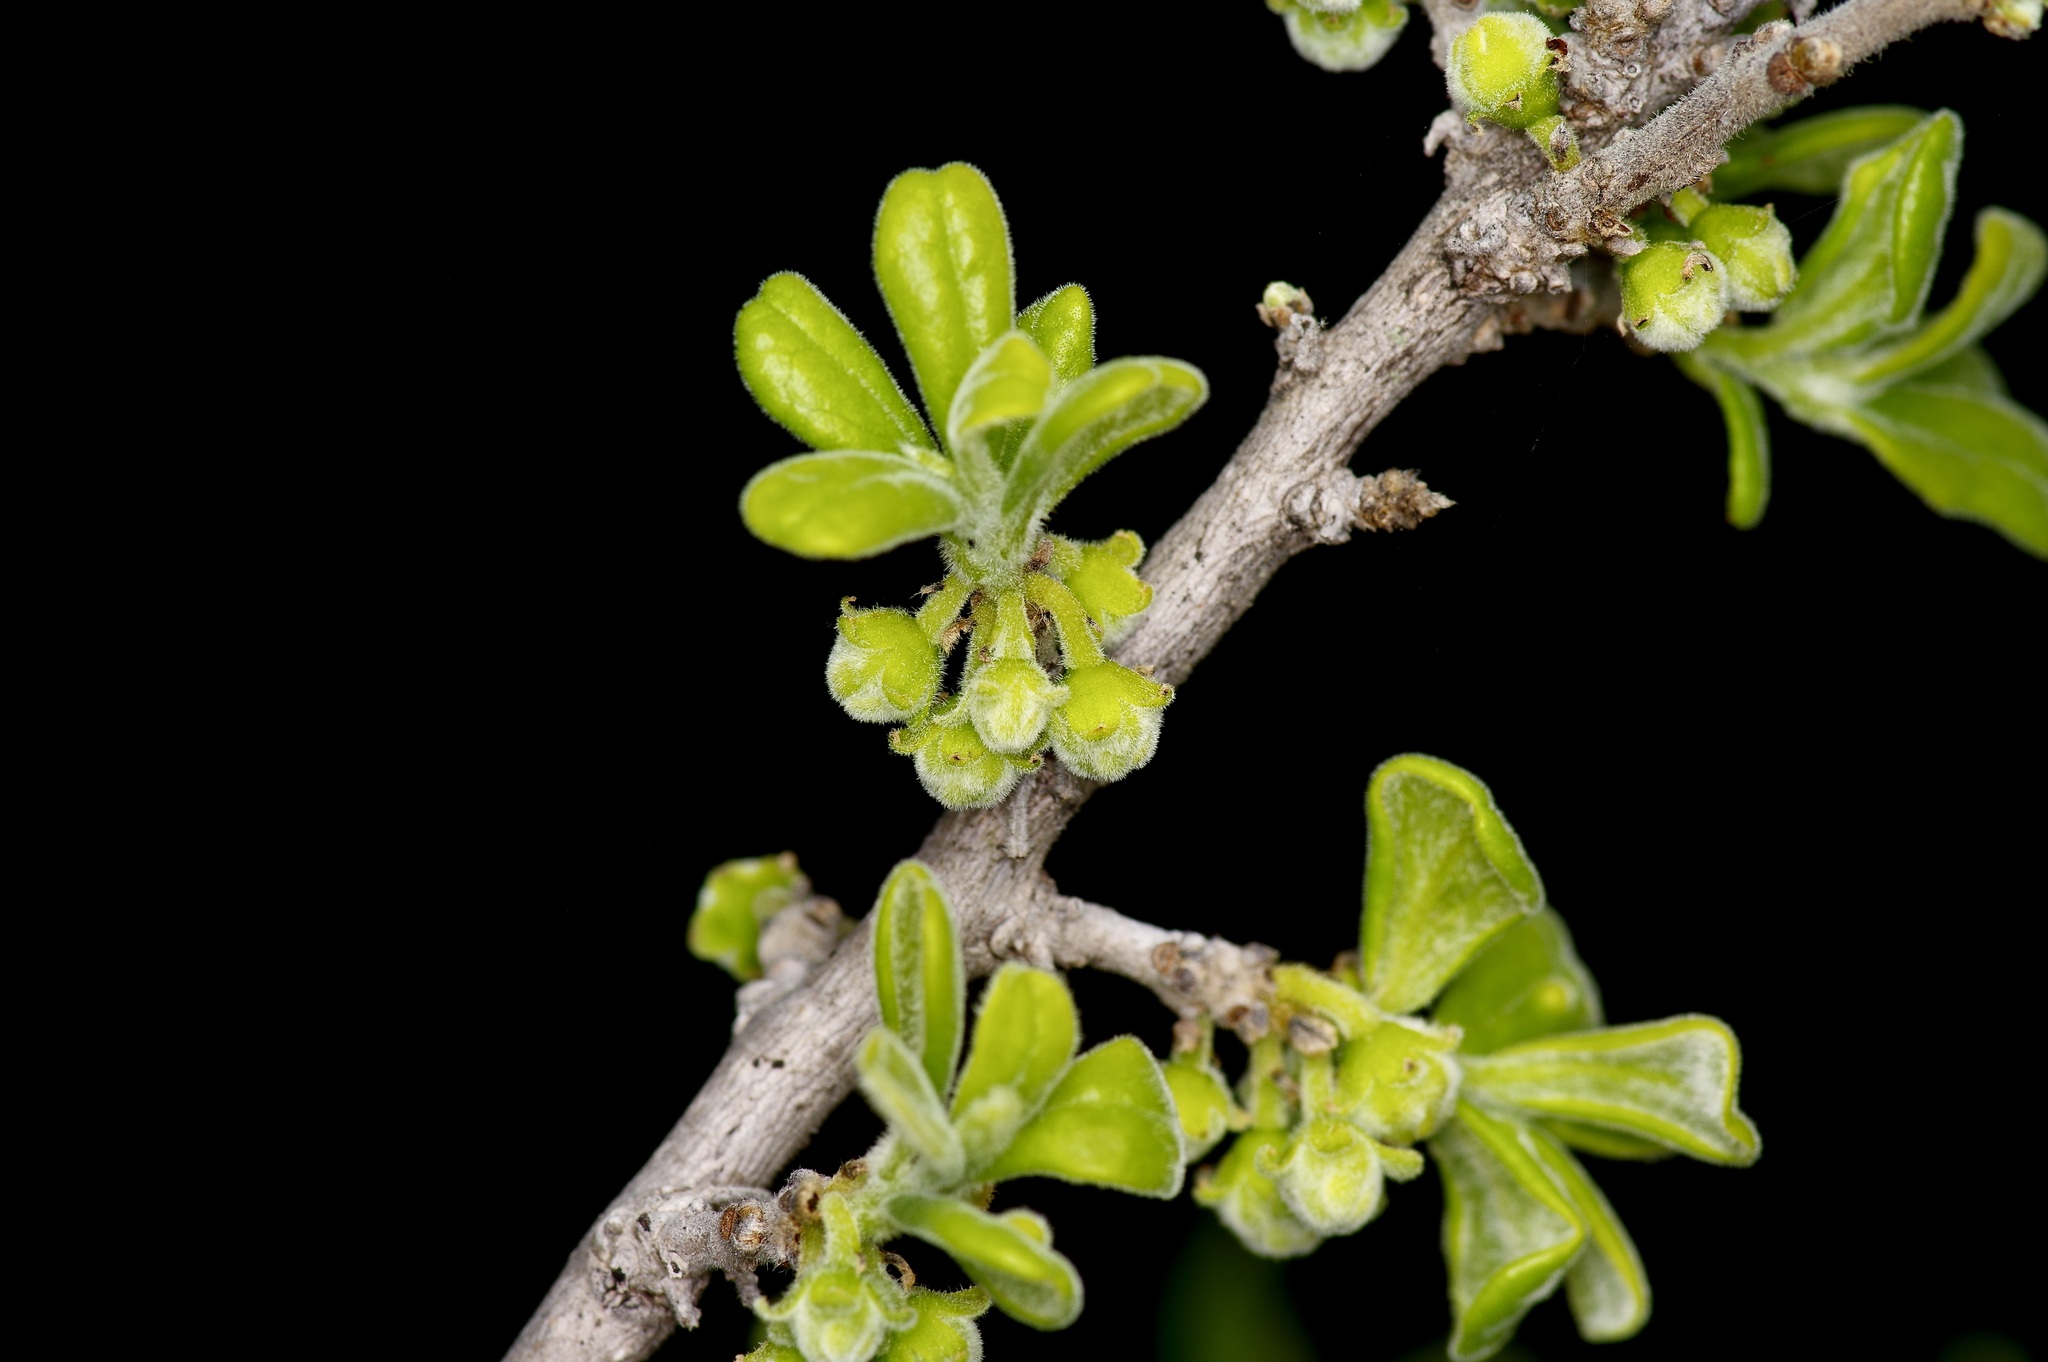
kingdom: Plantae
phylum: Tracheophyta
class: Magnoliopsida
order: Ericales
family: Ebenaceae
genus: Diospyros
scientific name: Diospyros texana
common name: Texas persimmon
